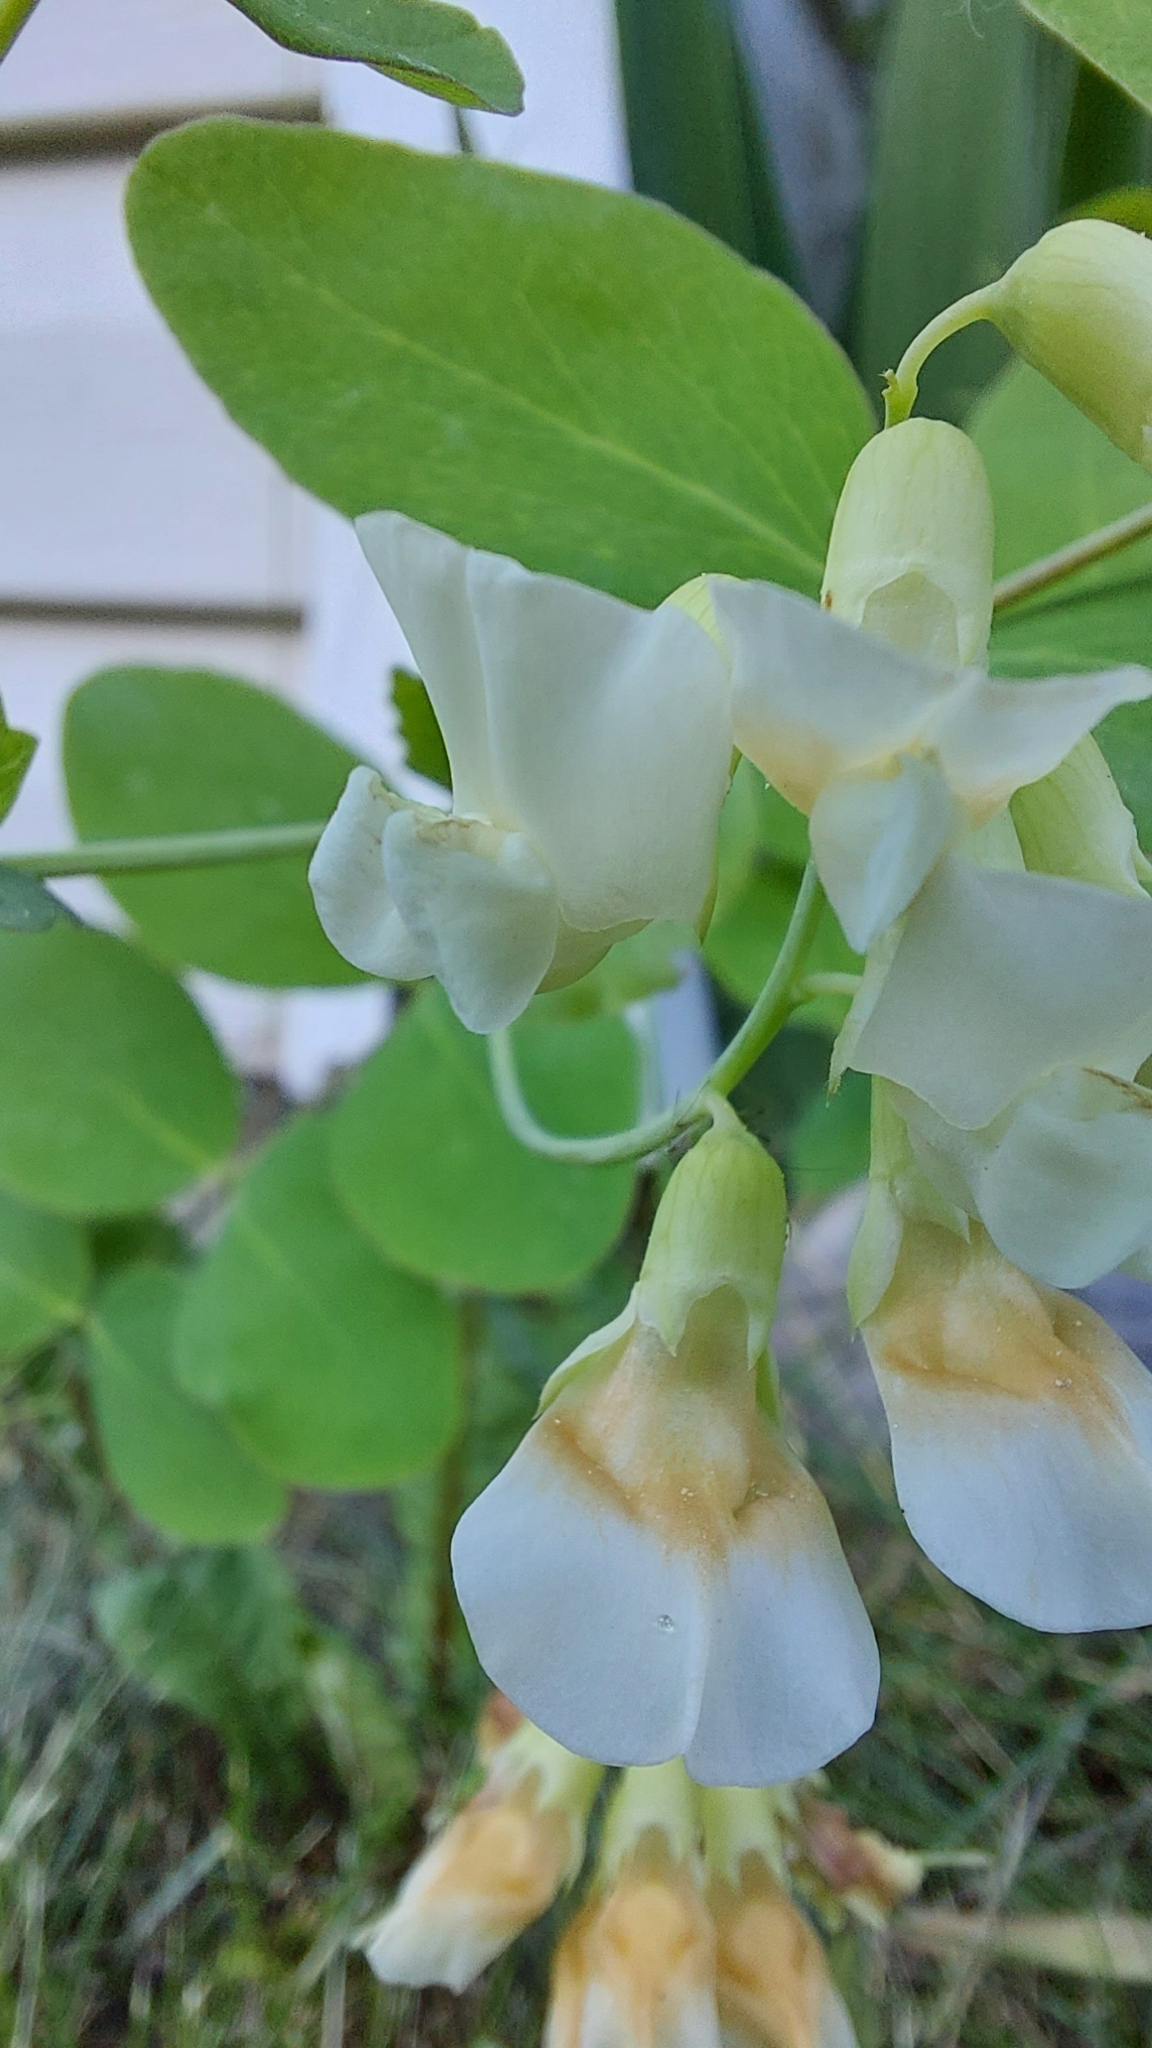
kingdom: Plantae
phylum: Tracheophyta
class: Magnoliopsida
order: Fabales
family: Fabaceae
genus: Lathyrus
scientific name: Lathyrus ochroleucus
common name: Pale vetchling
